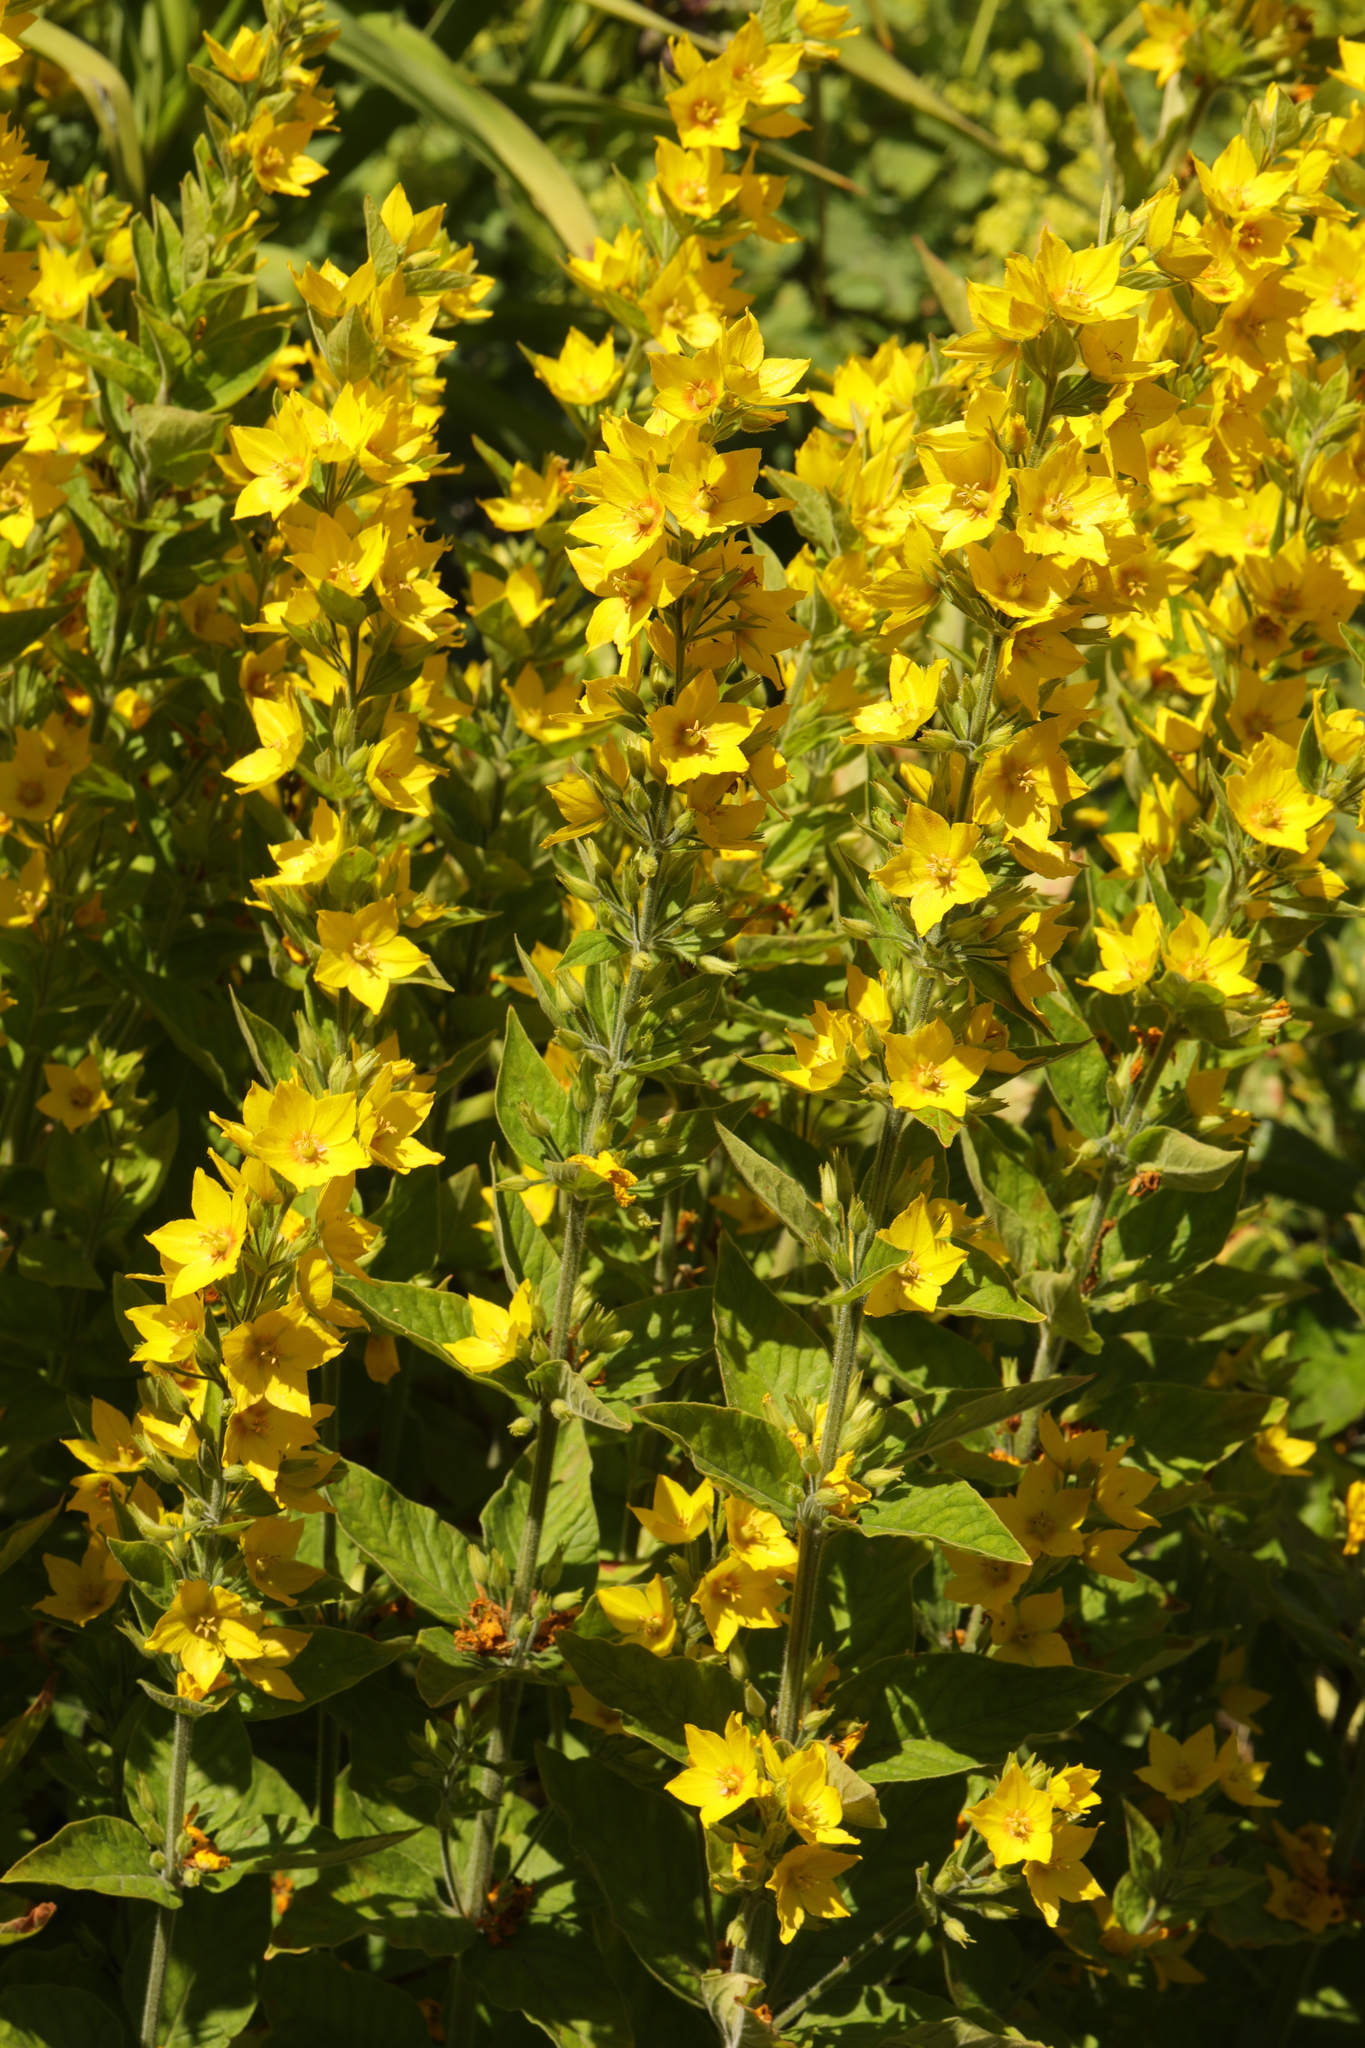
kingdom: Plantae
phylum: Tracheophyta
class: Magnoliopsida
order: Ericales
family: Primulaceae
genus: Lysimachia
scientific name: Lysimachia punctata
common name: Dotted loosestrife
